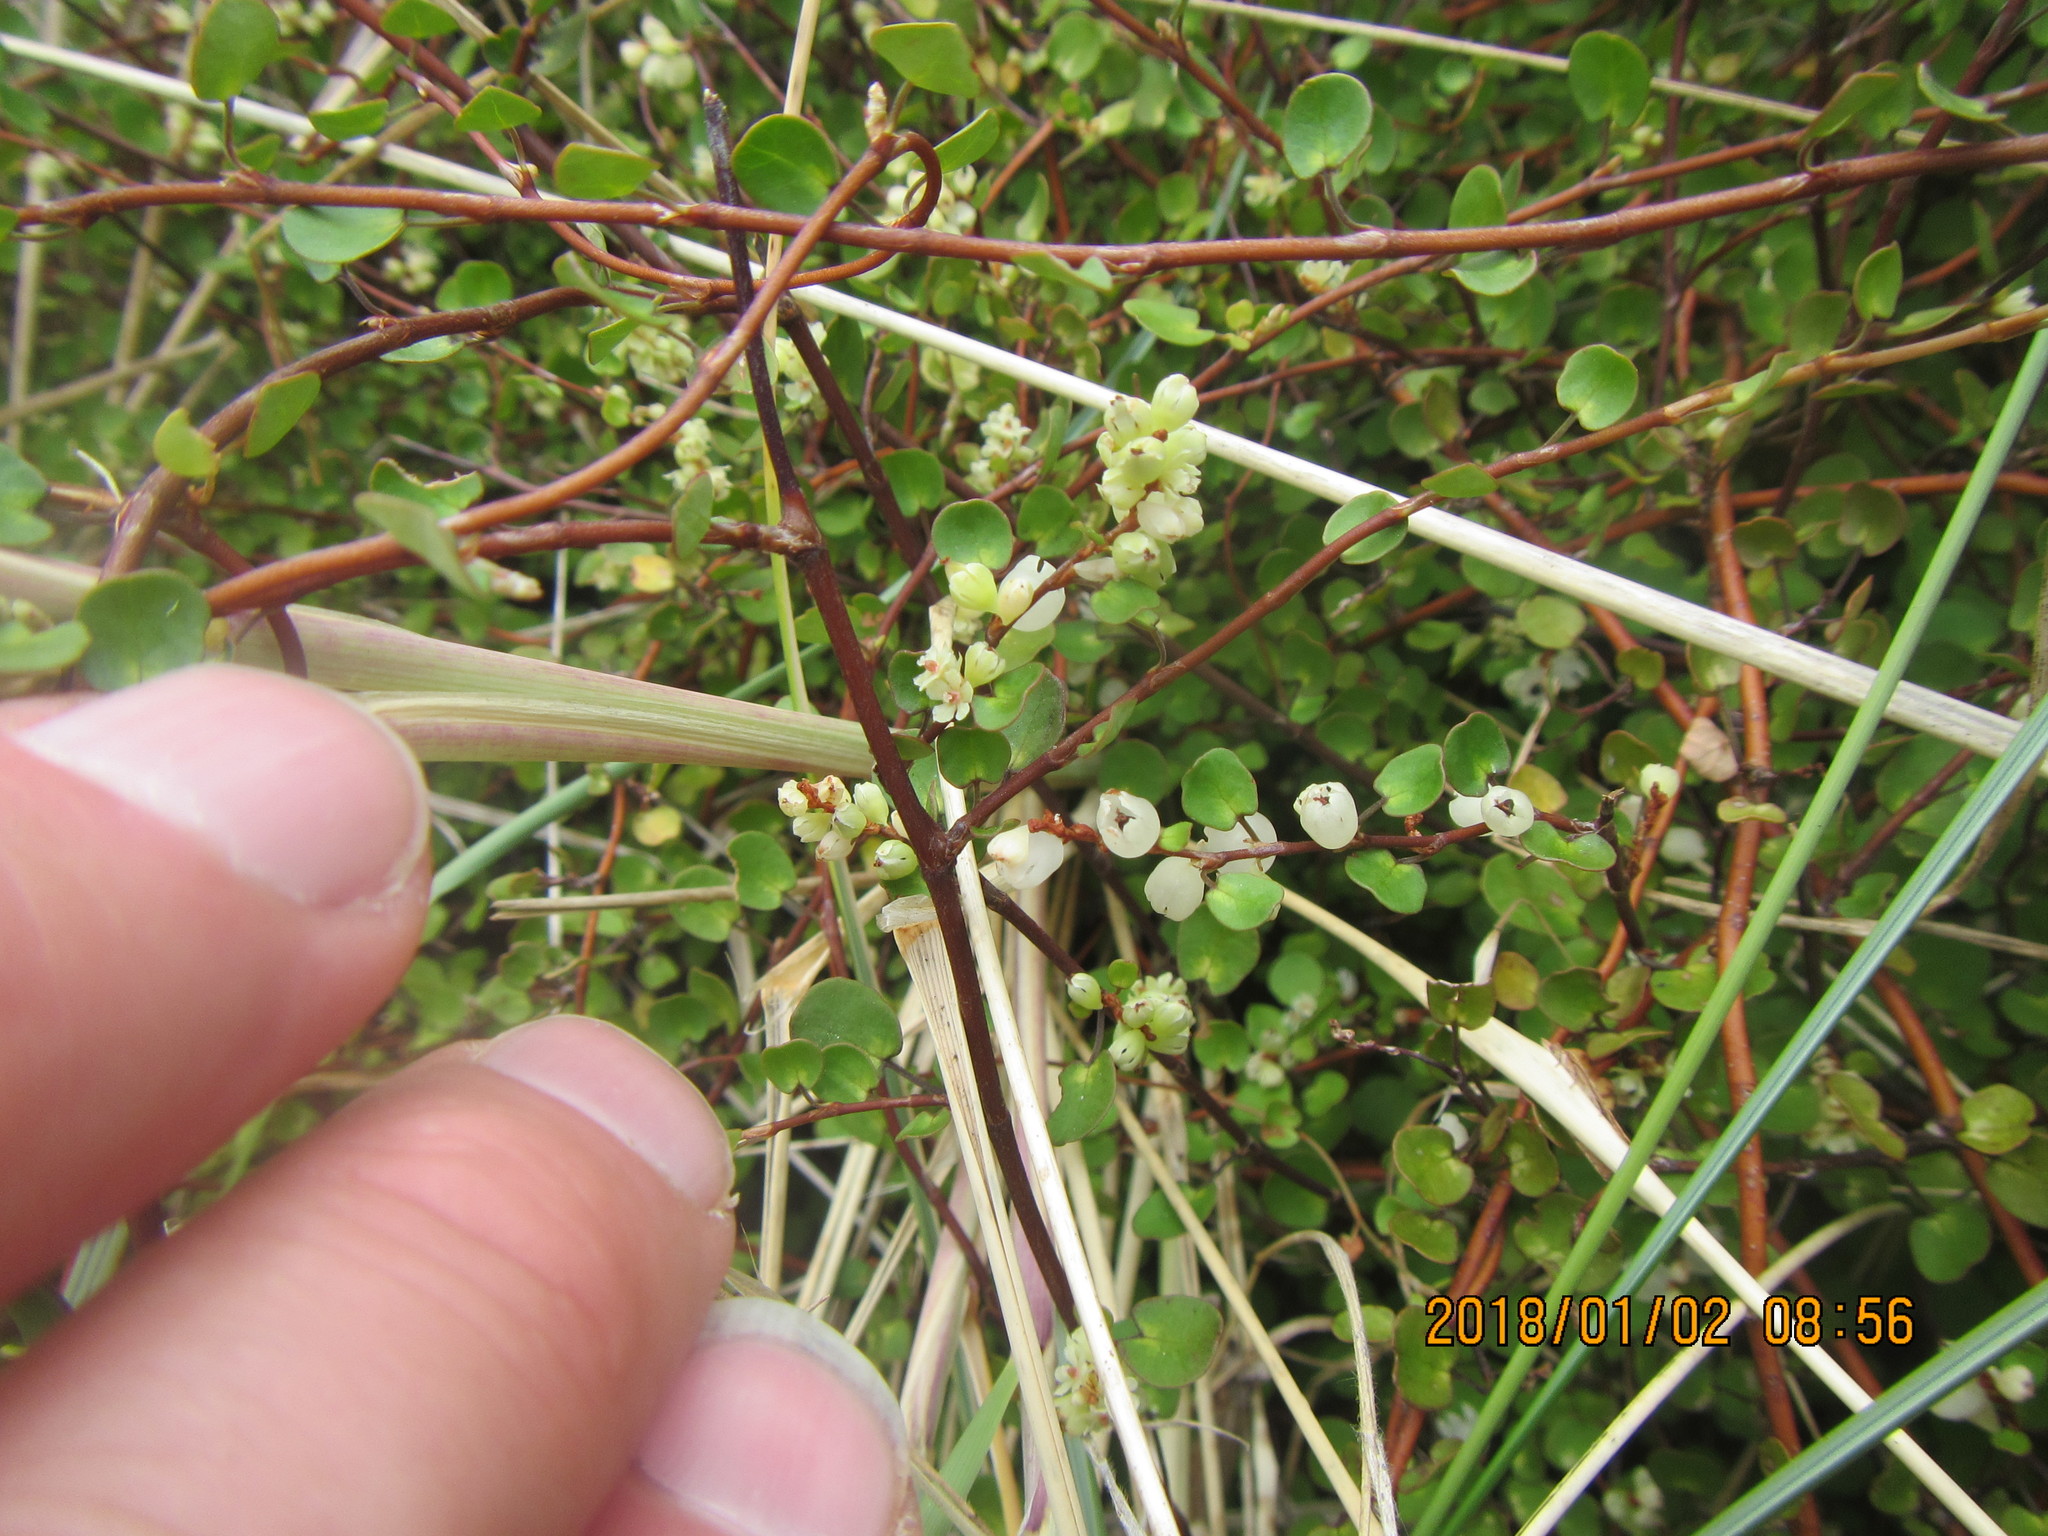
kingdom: Plantae
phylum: Tracheophyta
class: Magnoliopsida
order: Caryophyllales
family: Polygonaceae
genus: Muehlenbeckia
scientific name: Muehlenbeckia complexa
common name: Wireplant
